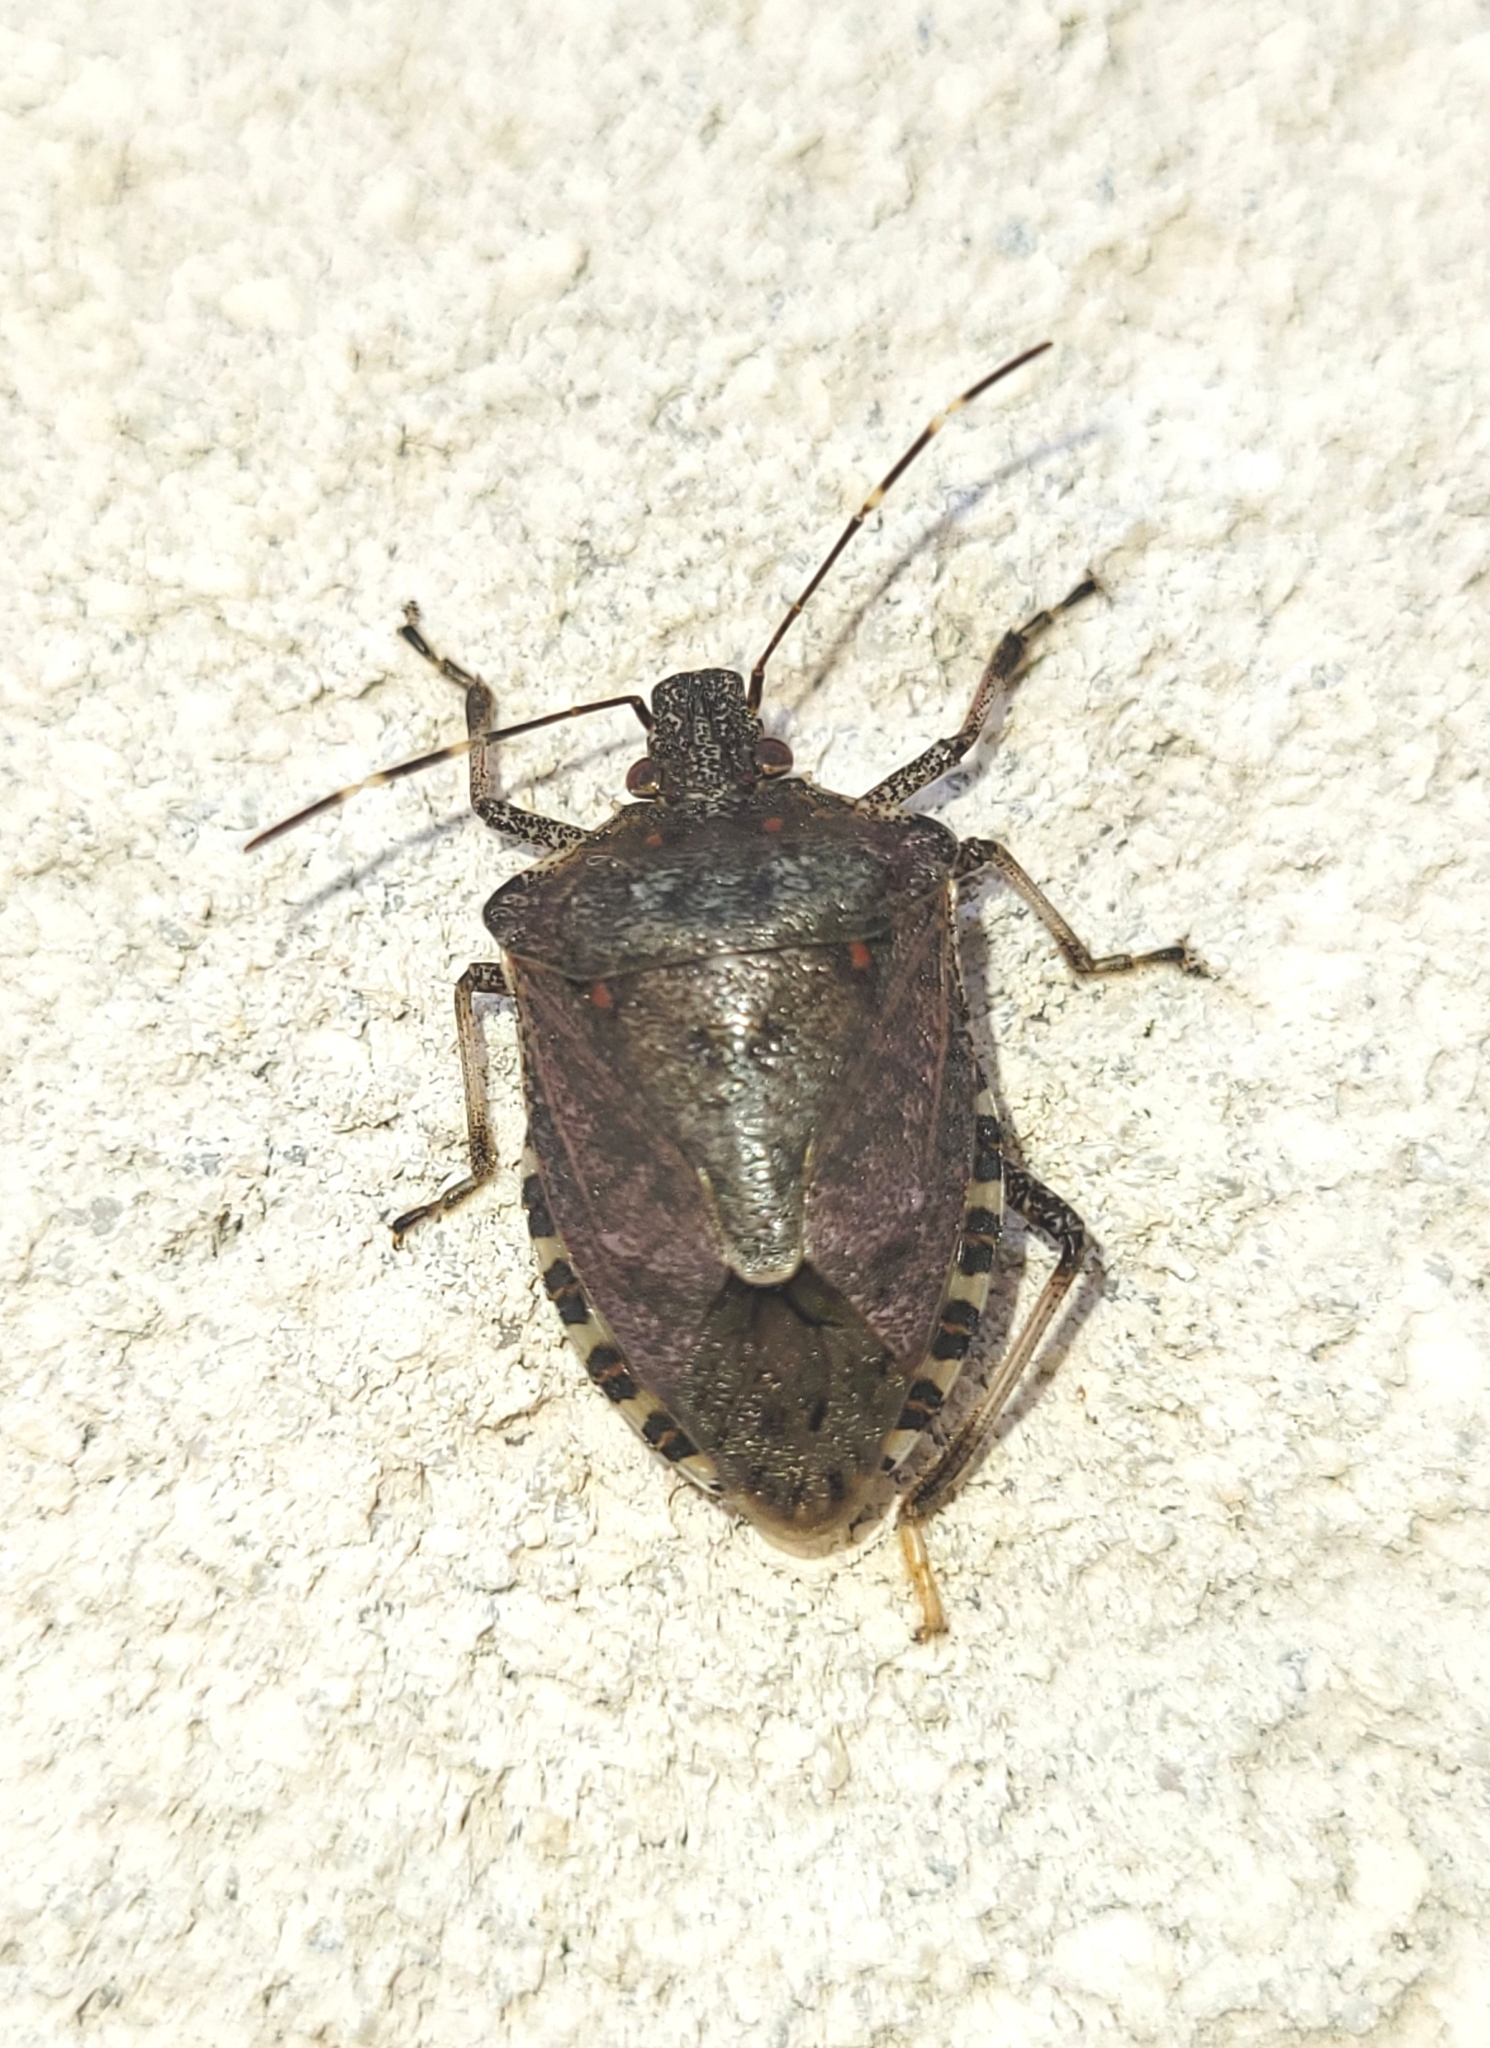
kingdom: Animalia
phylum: Arthropoda
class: Insecta
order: Hemiptera
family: Pentatomidae
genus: Halyomorpha
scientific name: Halyomorpha halys
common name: Brown marmorated stink bug
